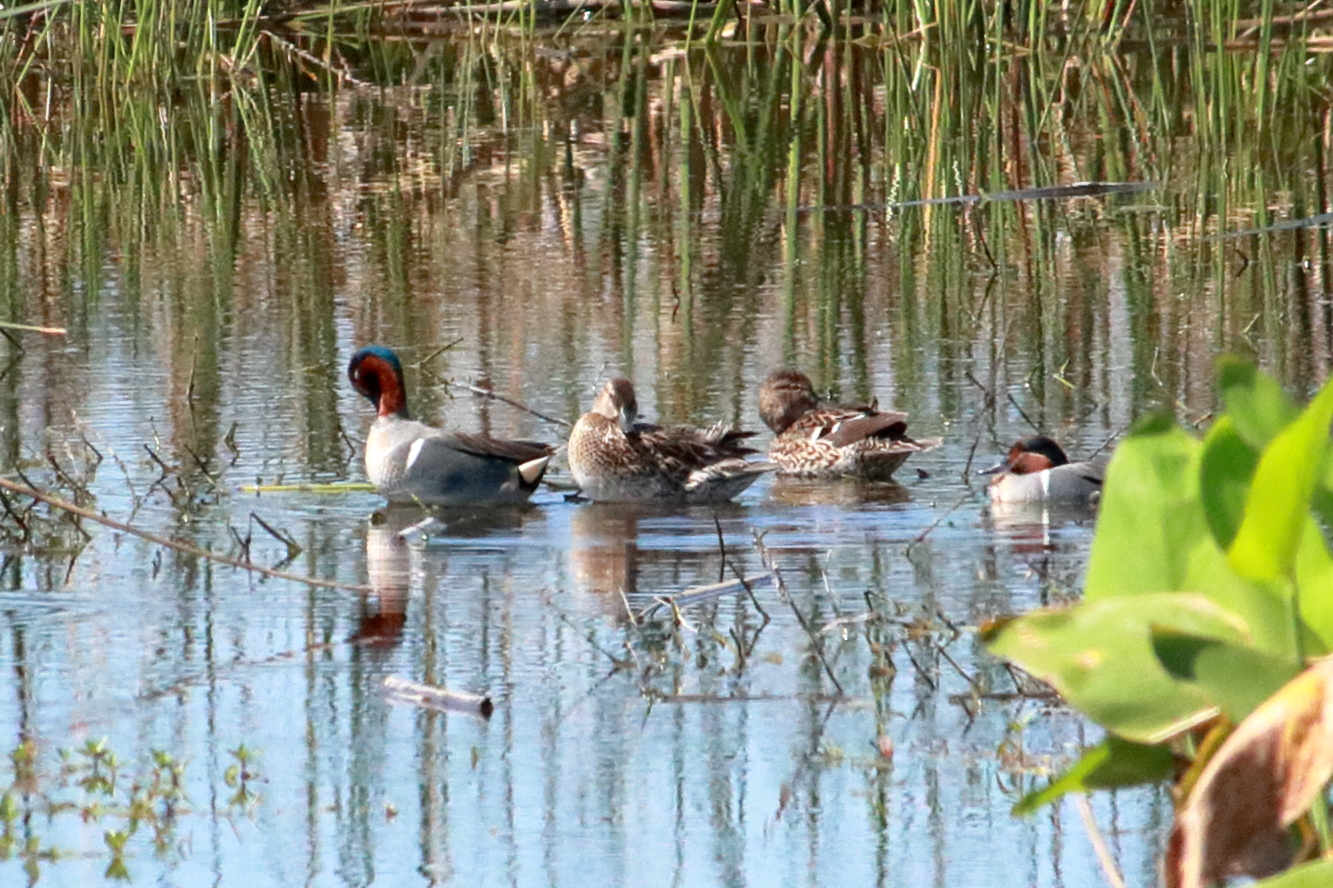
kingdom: Animalia
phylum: Chordata
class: Aves
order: Anseriformes
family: Anatidae
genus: Anas
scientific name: Anas crecca
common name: Eurasian teal
